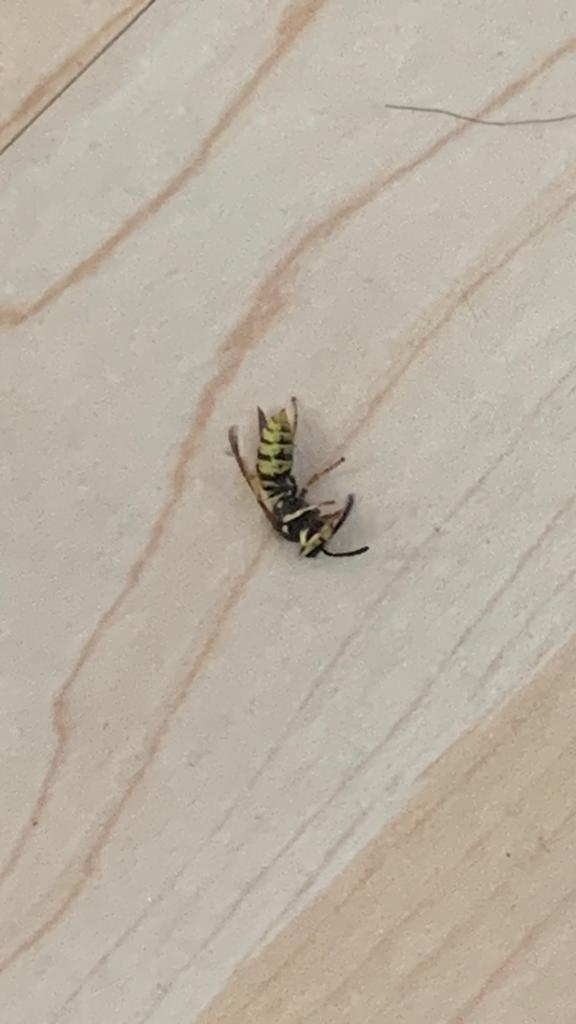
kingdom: Animalia
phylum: Arthropoda
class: Insecta
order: Hymenoptera
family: Vespidae
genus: Vespula
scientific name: Vespula germanica
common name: German wasp
